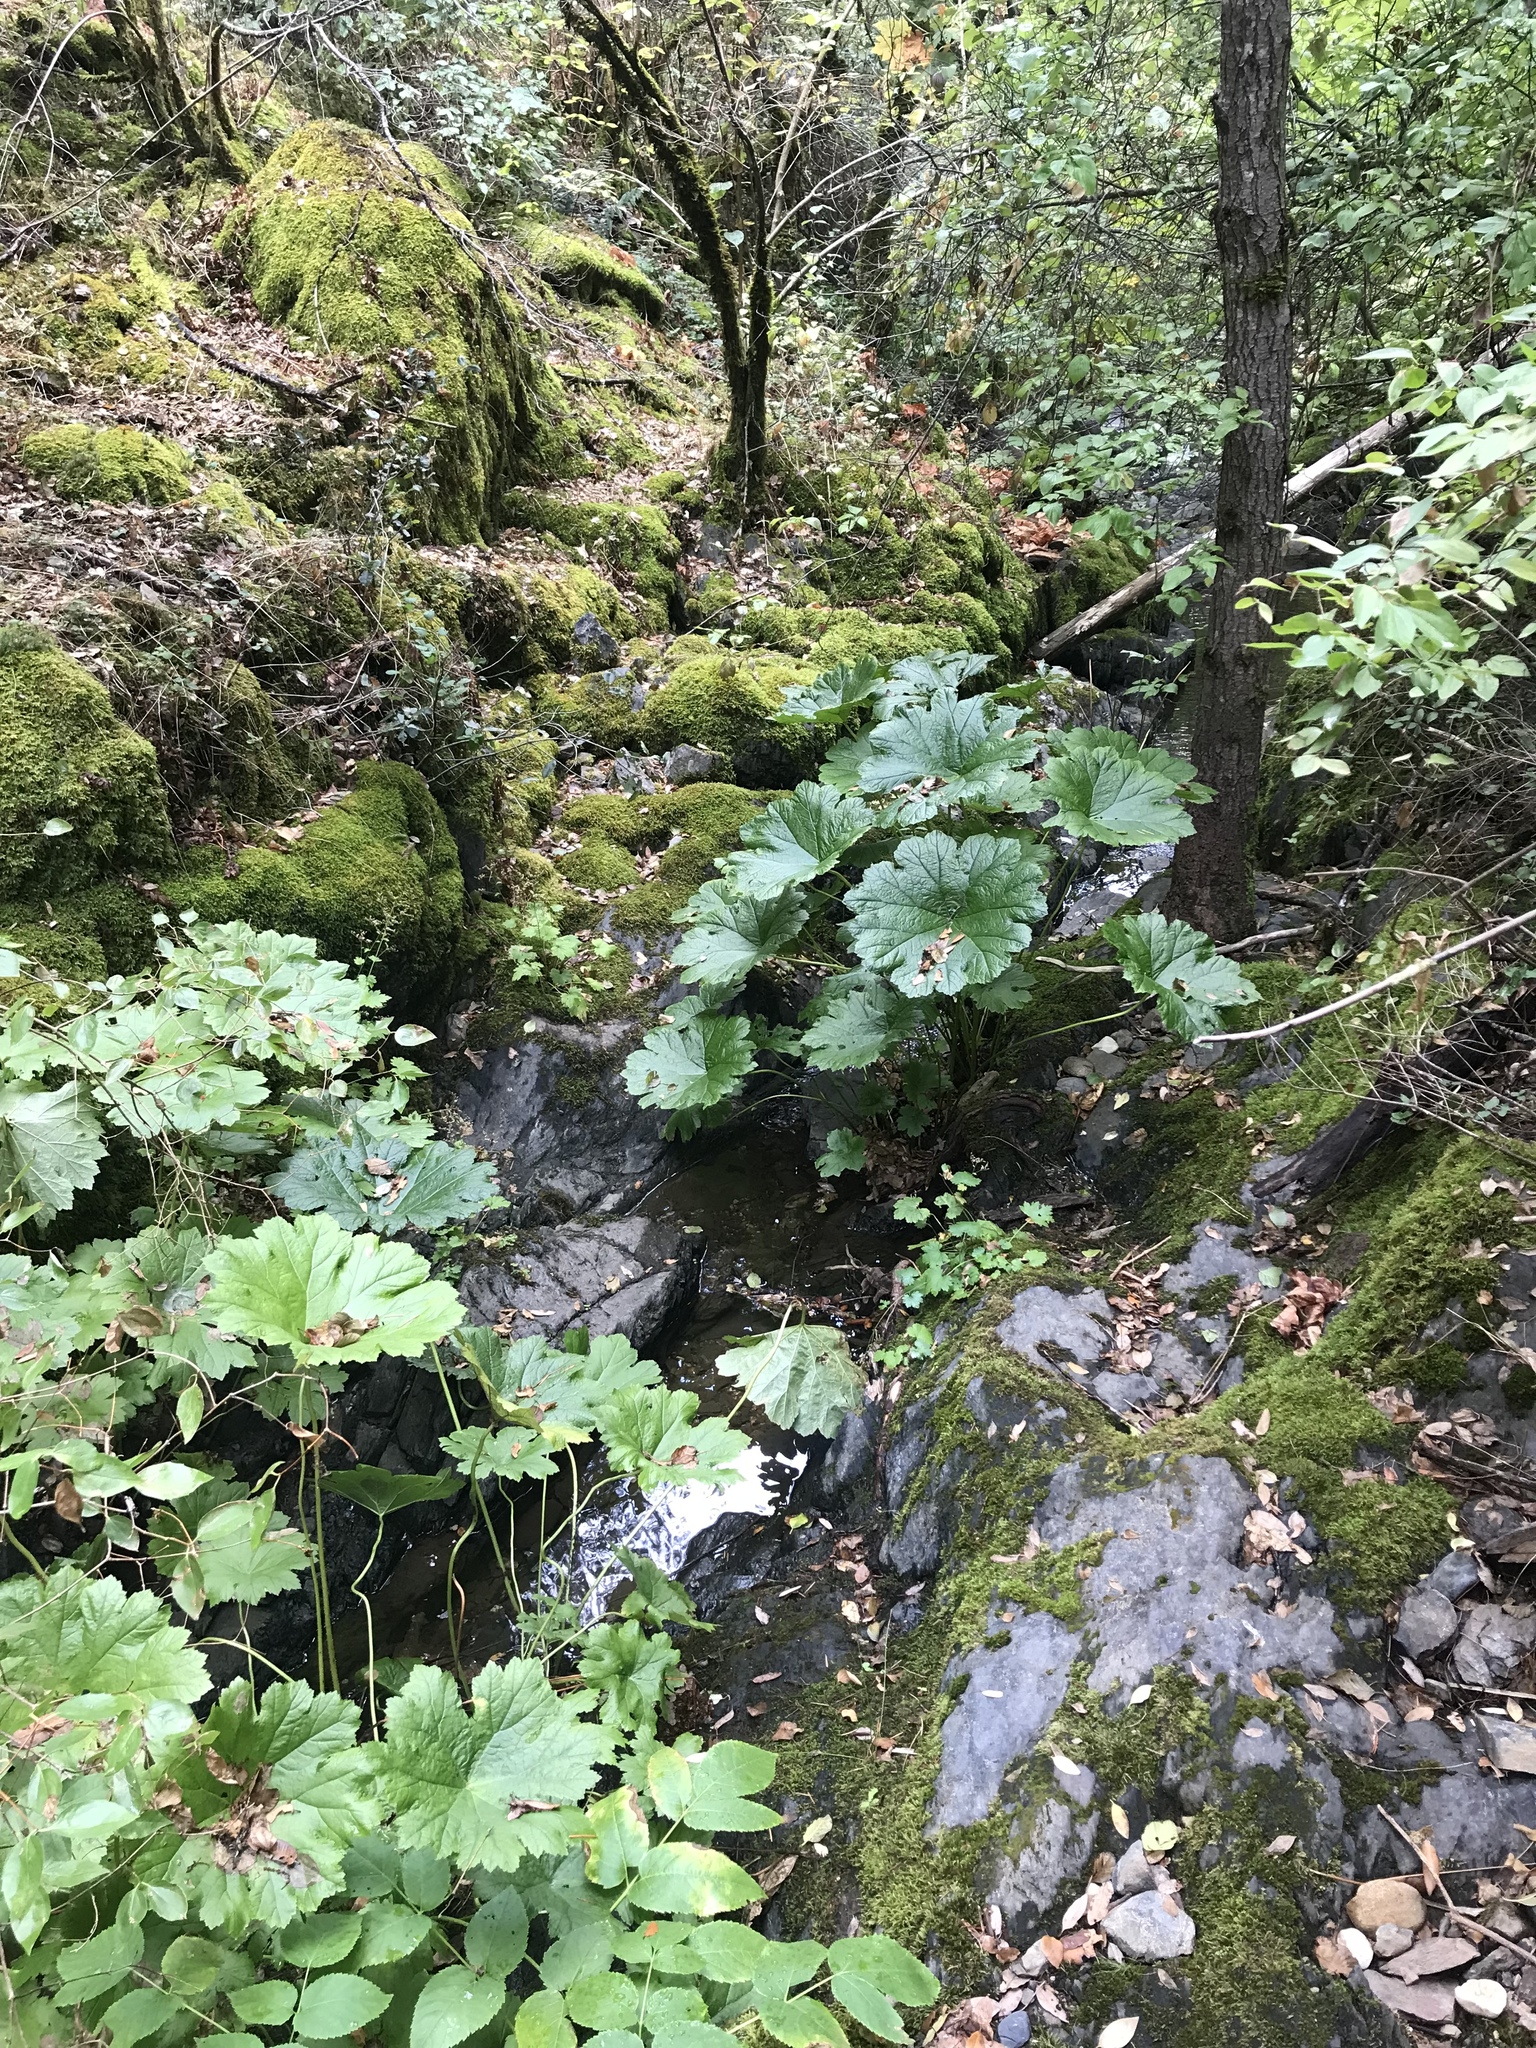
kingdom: Plantae
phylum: Tracheophyta
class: Magnoliopsida
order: Saxifragales
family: Saxifragaceae
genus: Darmera
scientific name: Darmera peltata
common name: Indian-rhubarb
